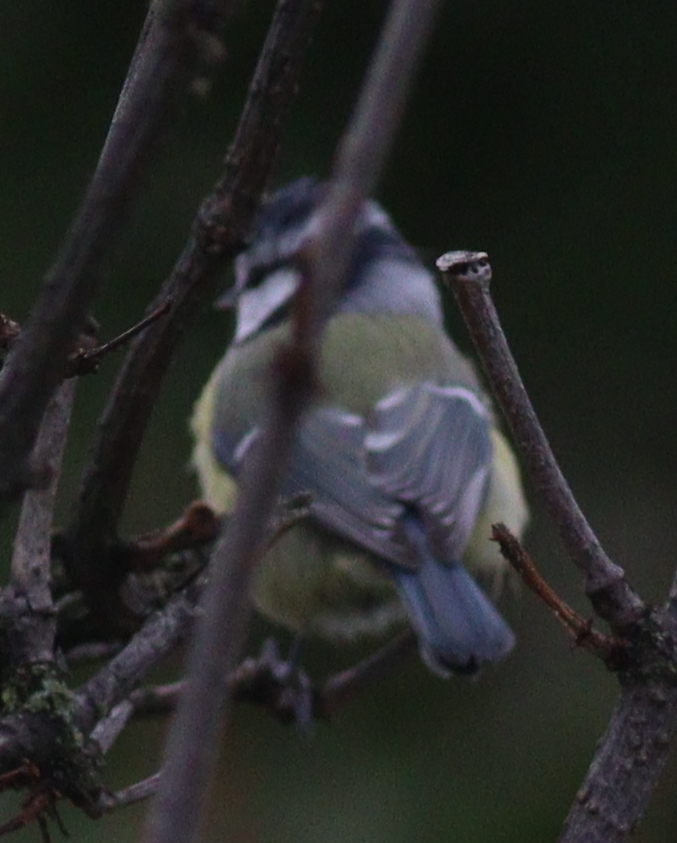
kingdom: Animalia
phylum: Chordata
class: Aves
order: Passeriformes
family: Paridae
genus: Cyanistes
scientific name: Cyanistes caeruleus
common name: Eurasian blue tit
